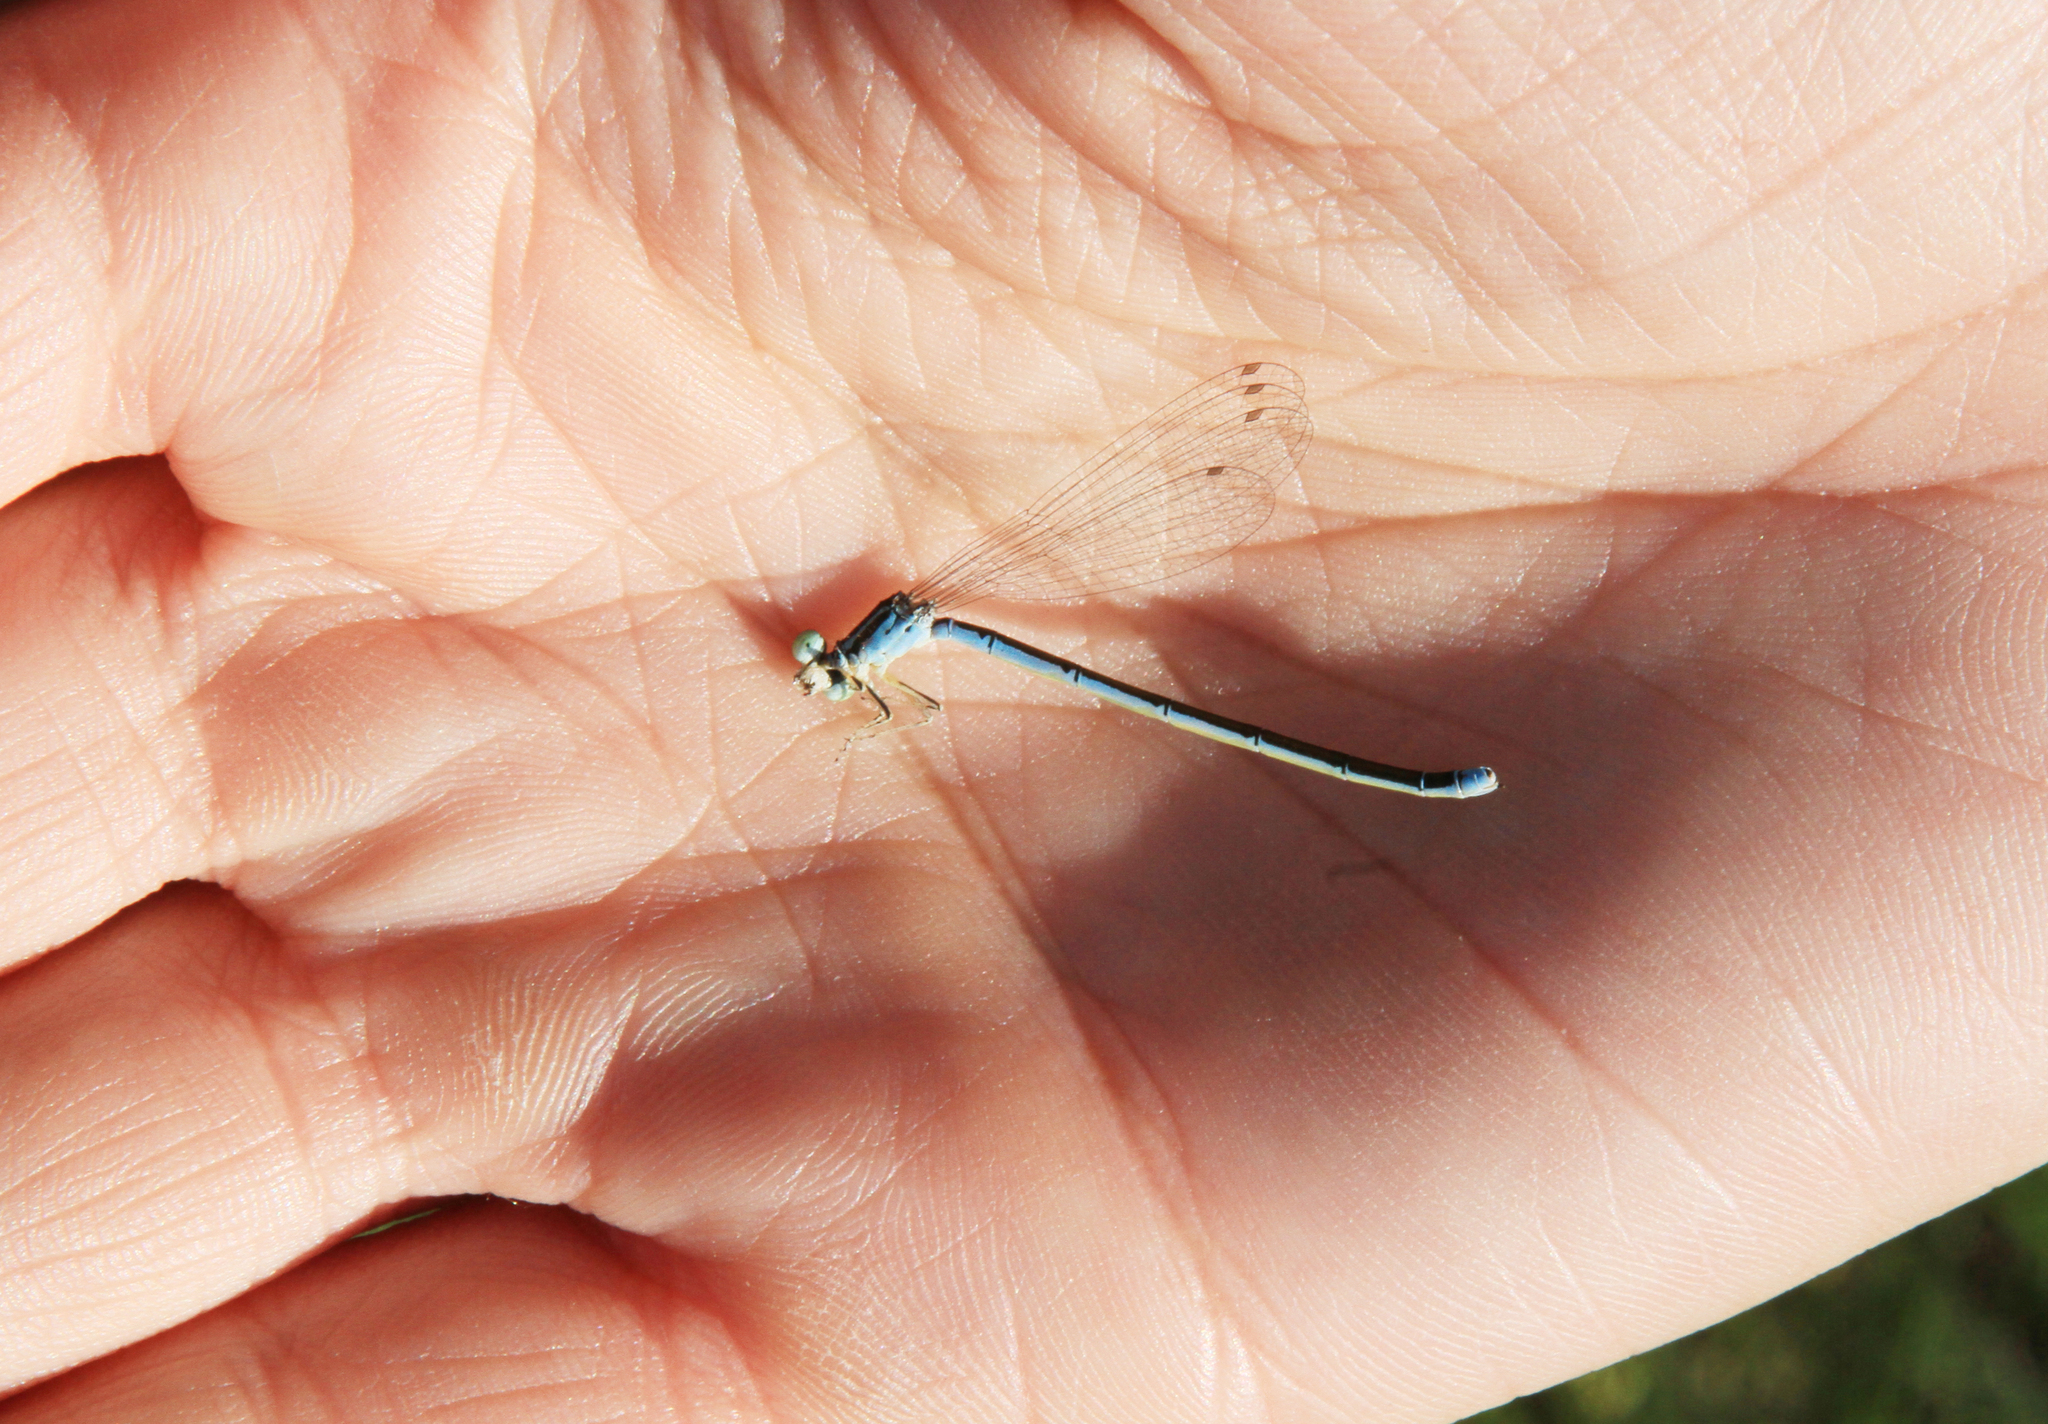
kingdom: Animalia
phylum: Arthropoda
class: Insecta
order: Odonata
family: Coenagrionidae
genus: Coenagrion
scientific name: Coenagrion ecornutum
